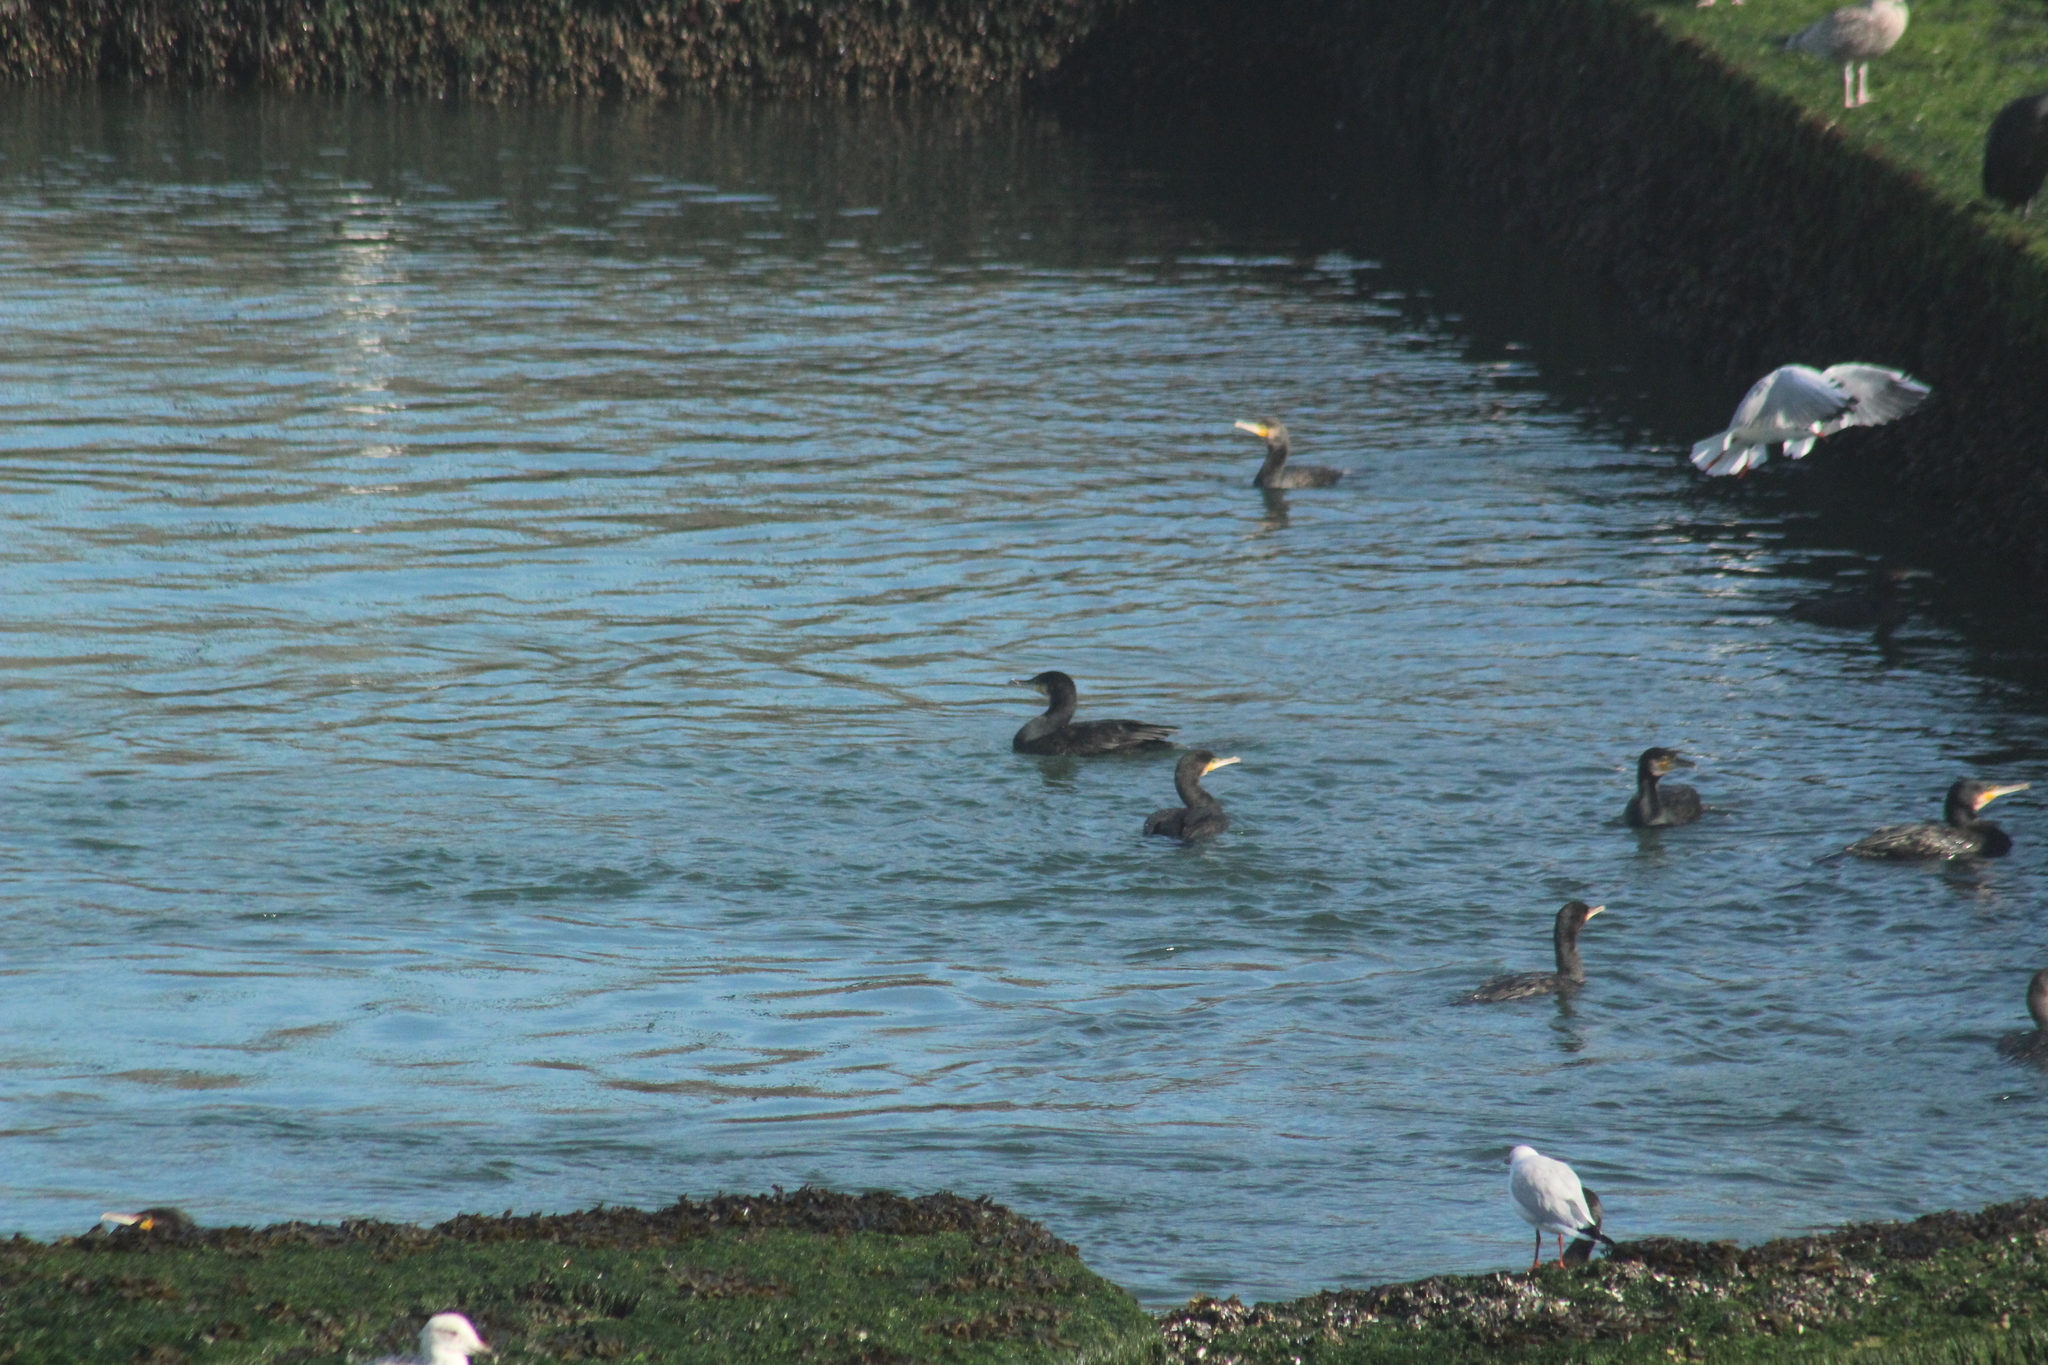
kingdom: Animalia
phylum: Chordata
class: Aves
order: Suliformes
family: Phalacrocoracidae
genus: Phalacrocorax
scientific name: Phalacrocorax carbo
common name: Great cormorant
